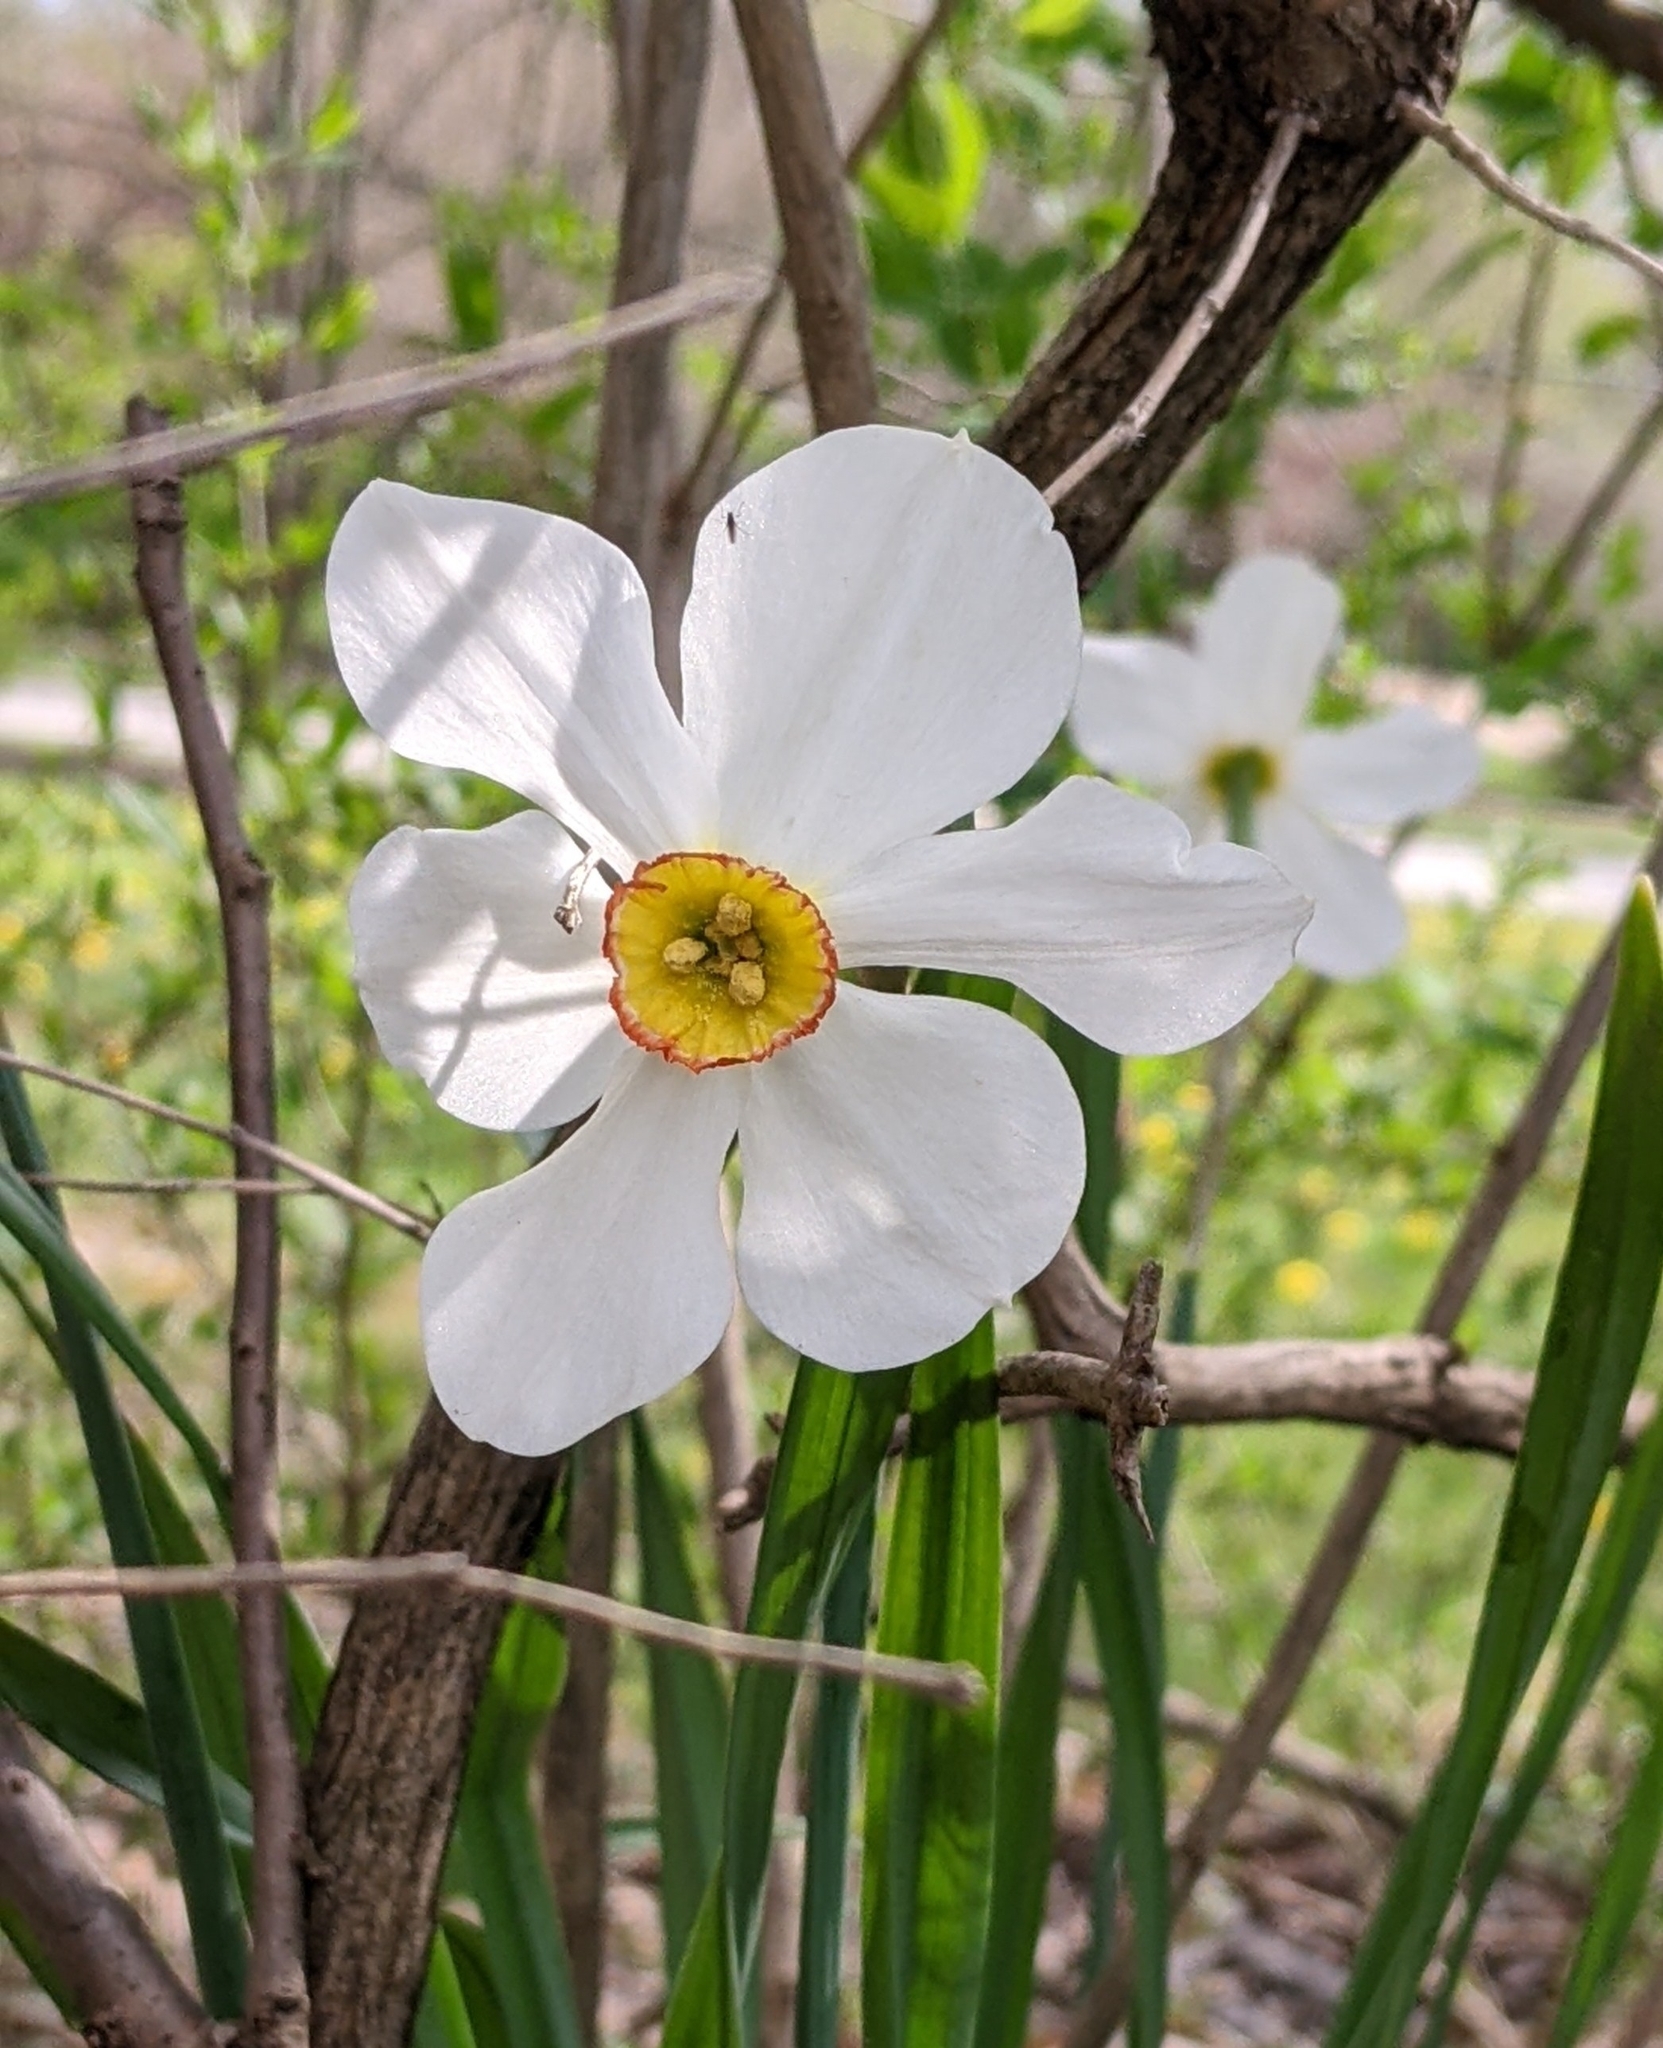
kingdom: Plantae
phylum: Tracheophyta
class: Liliopsida
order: Asparagales
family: Amaryllidaceae
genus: Narcissus
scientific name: Narcissus poeticus
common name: Pheasant's-eye daffodil
